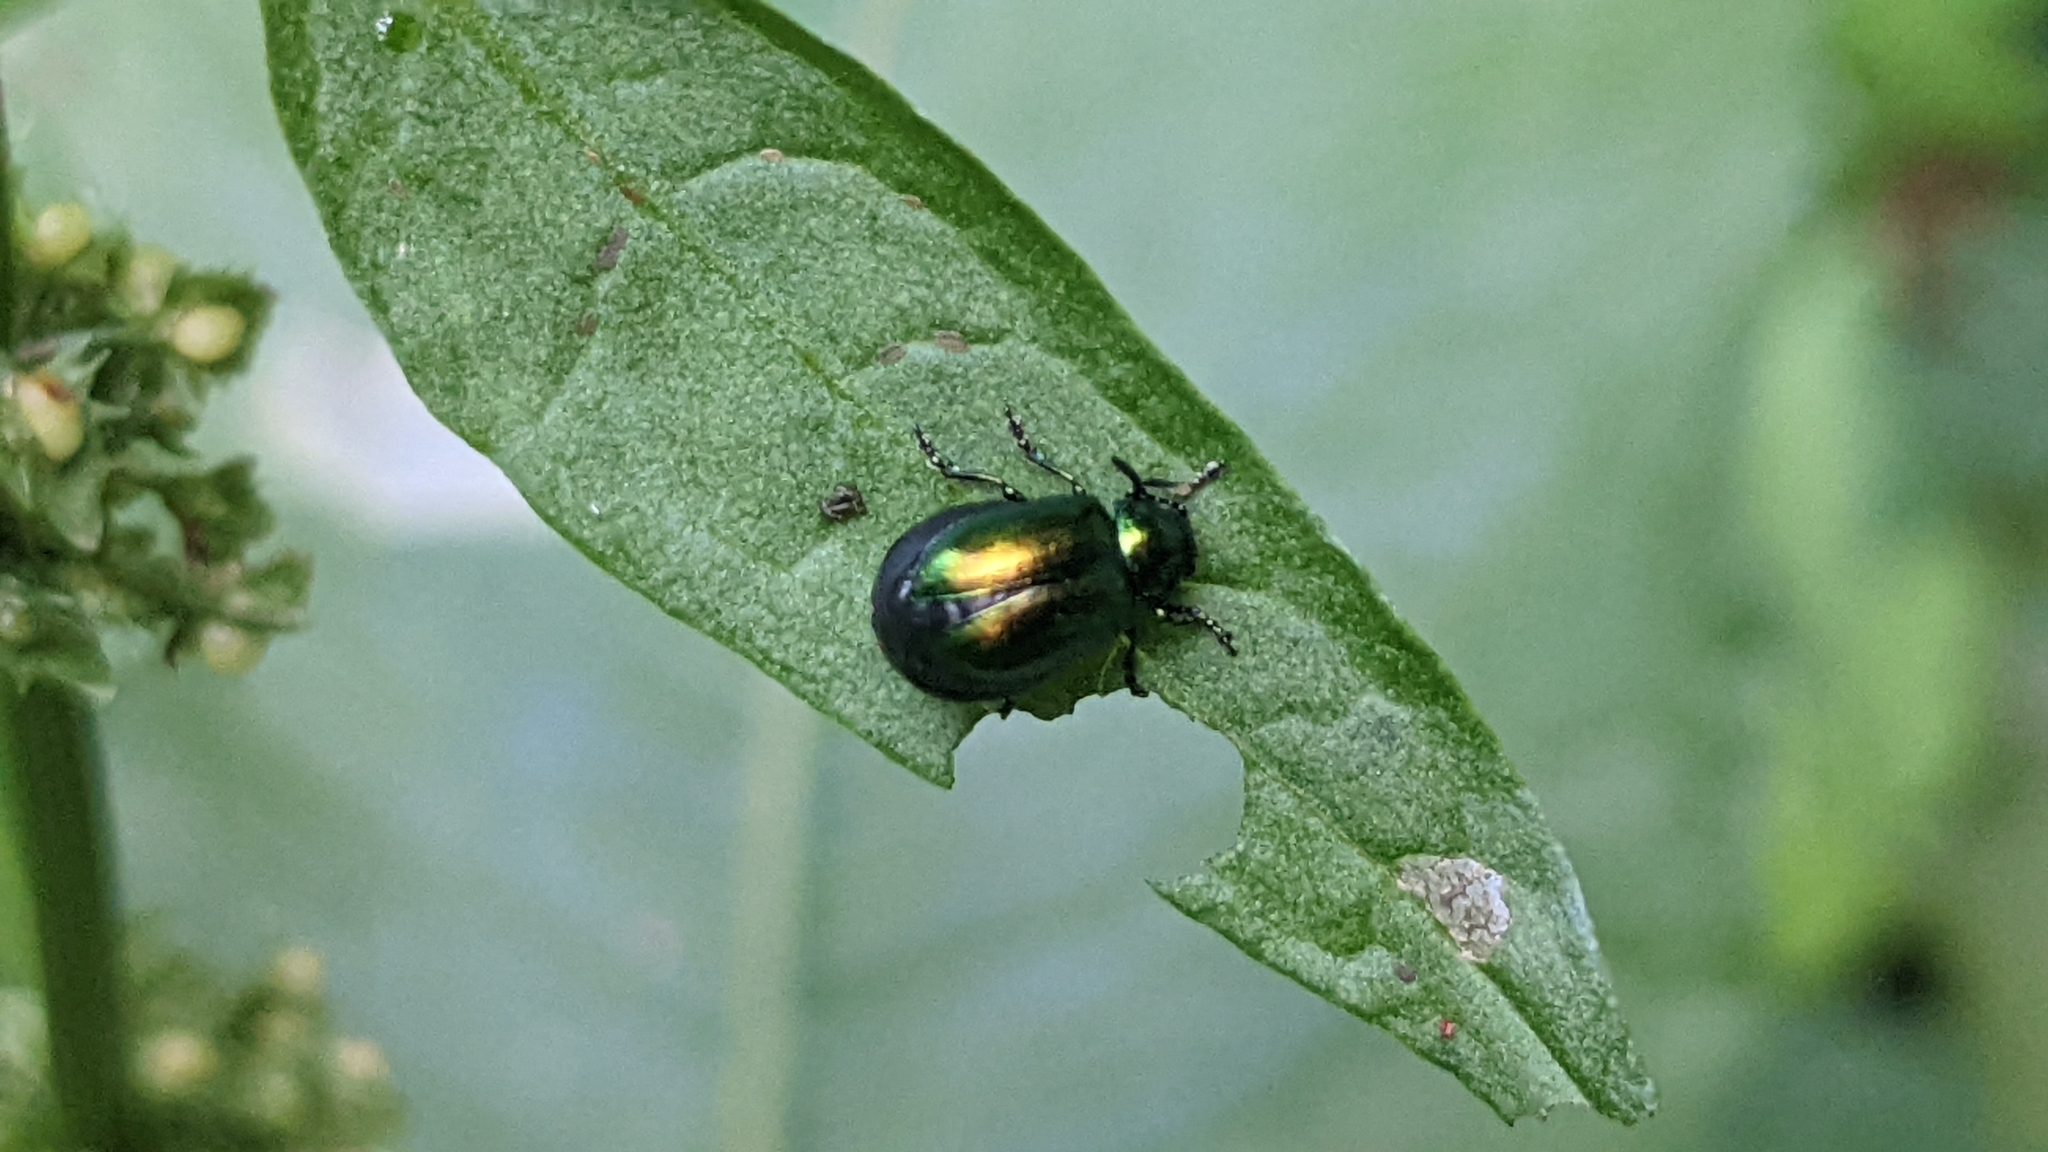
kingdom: Animalia
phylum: Arthropoda
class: Insecta
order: Coleoptera
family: Chrysomelidae
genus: Gastrophysa
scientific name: Gastrophysa viridula
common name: Green dock beetle
